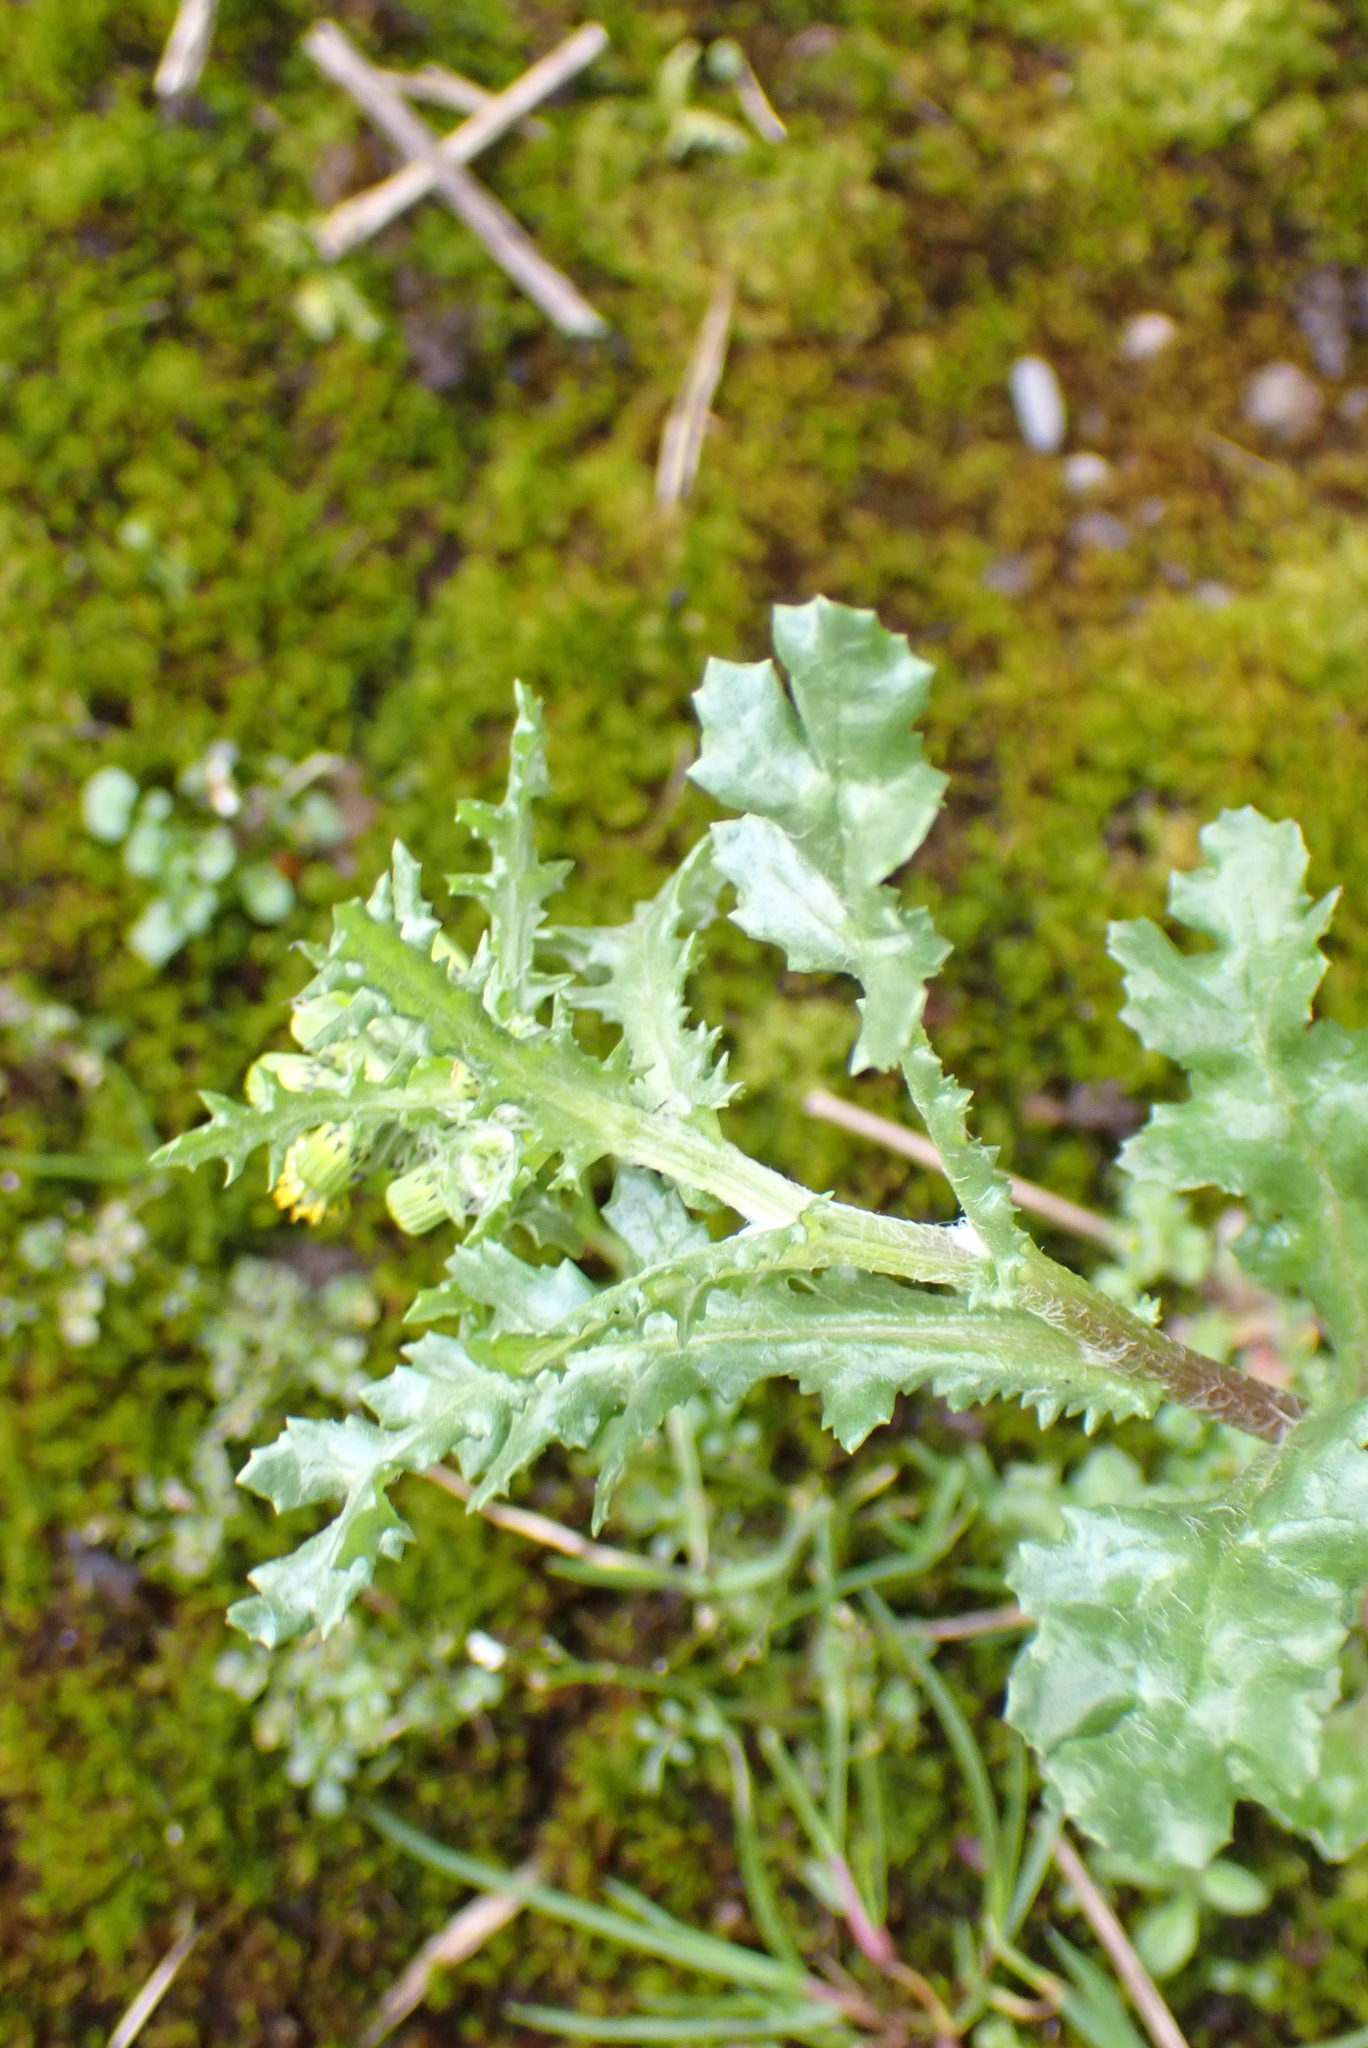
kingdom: Plantae
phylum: Tracheophyta
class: Magnoliopsida
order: Asterales
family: Asteraceae
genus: Senecio
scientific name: Senecio vulgaris
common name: Old-man-in-the-spring
